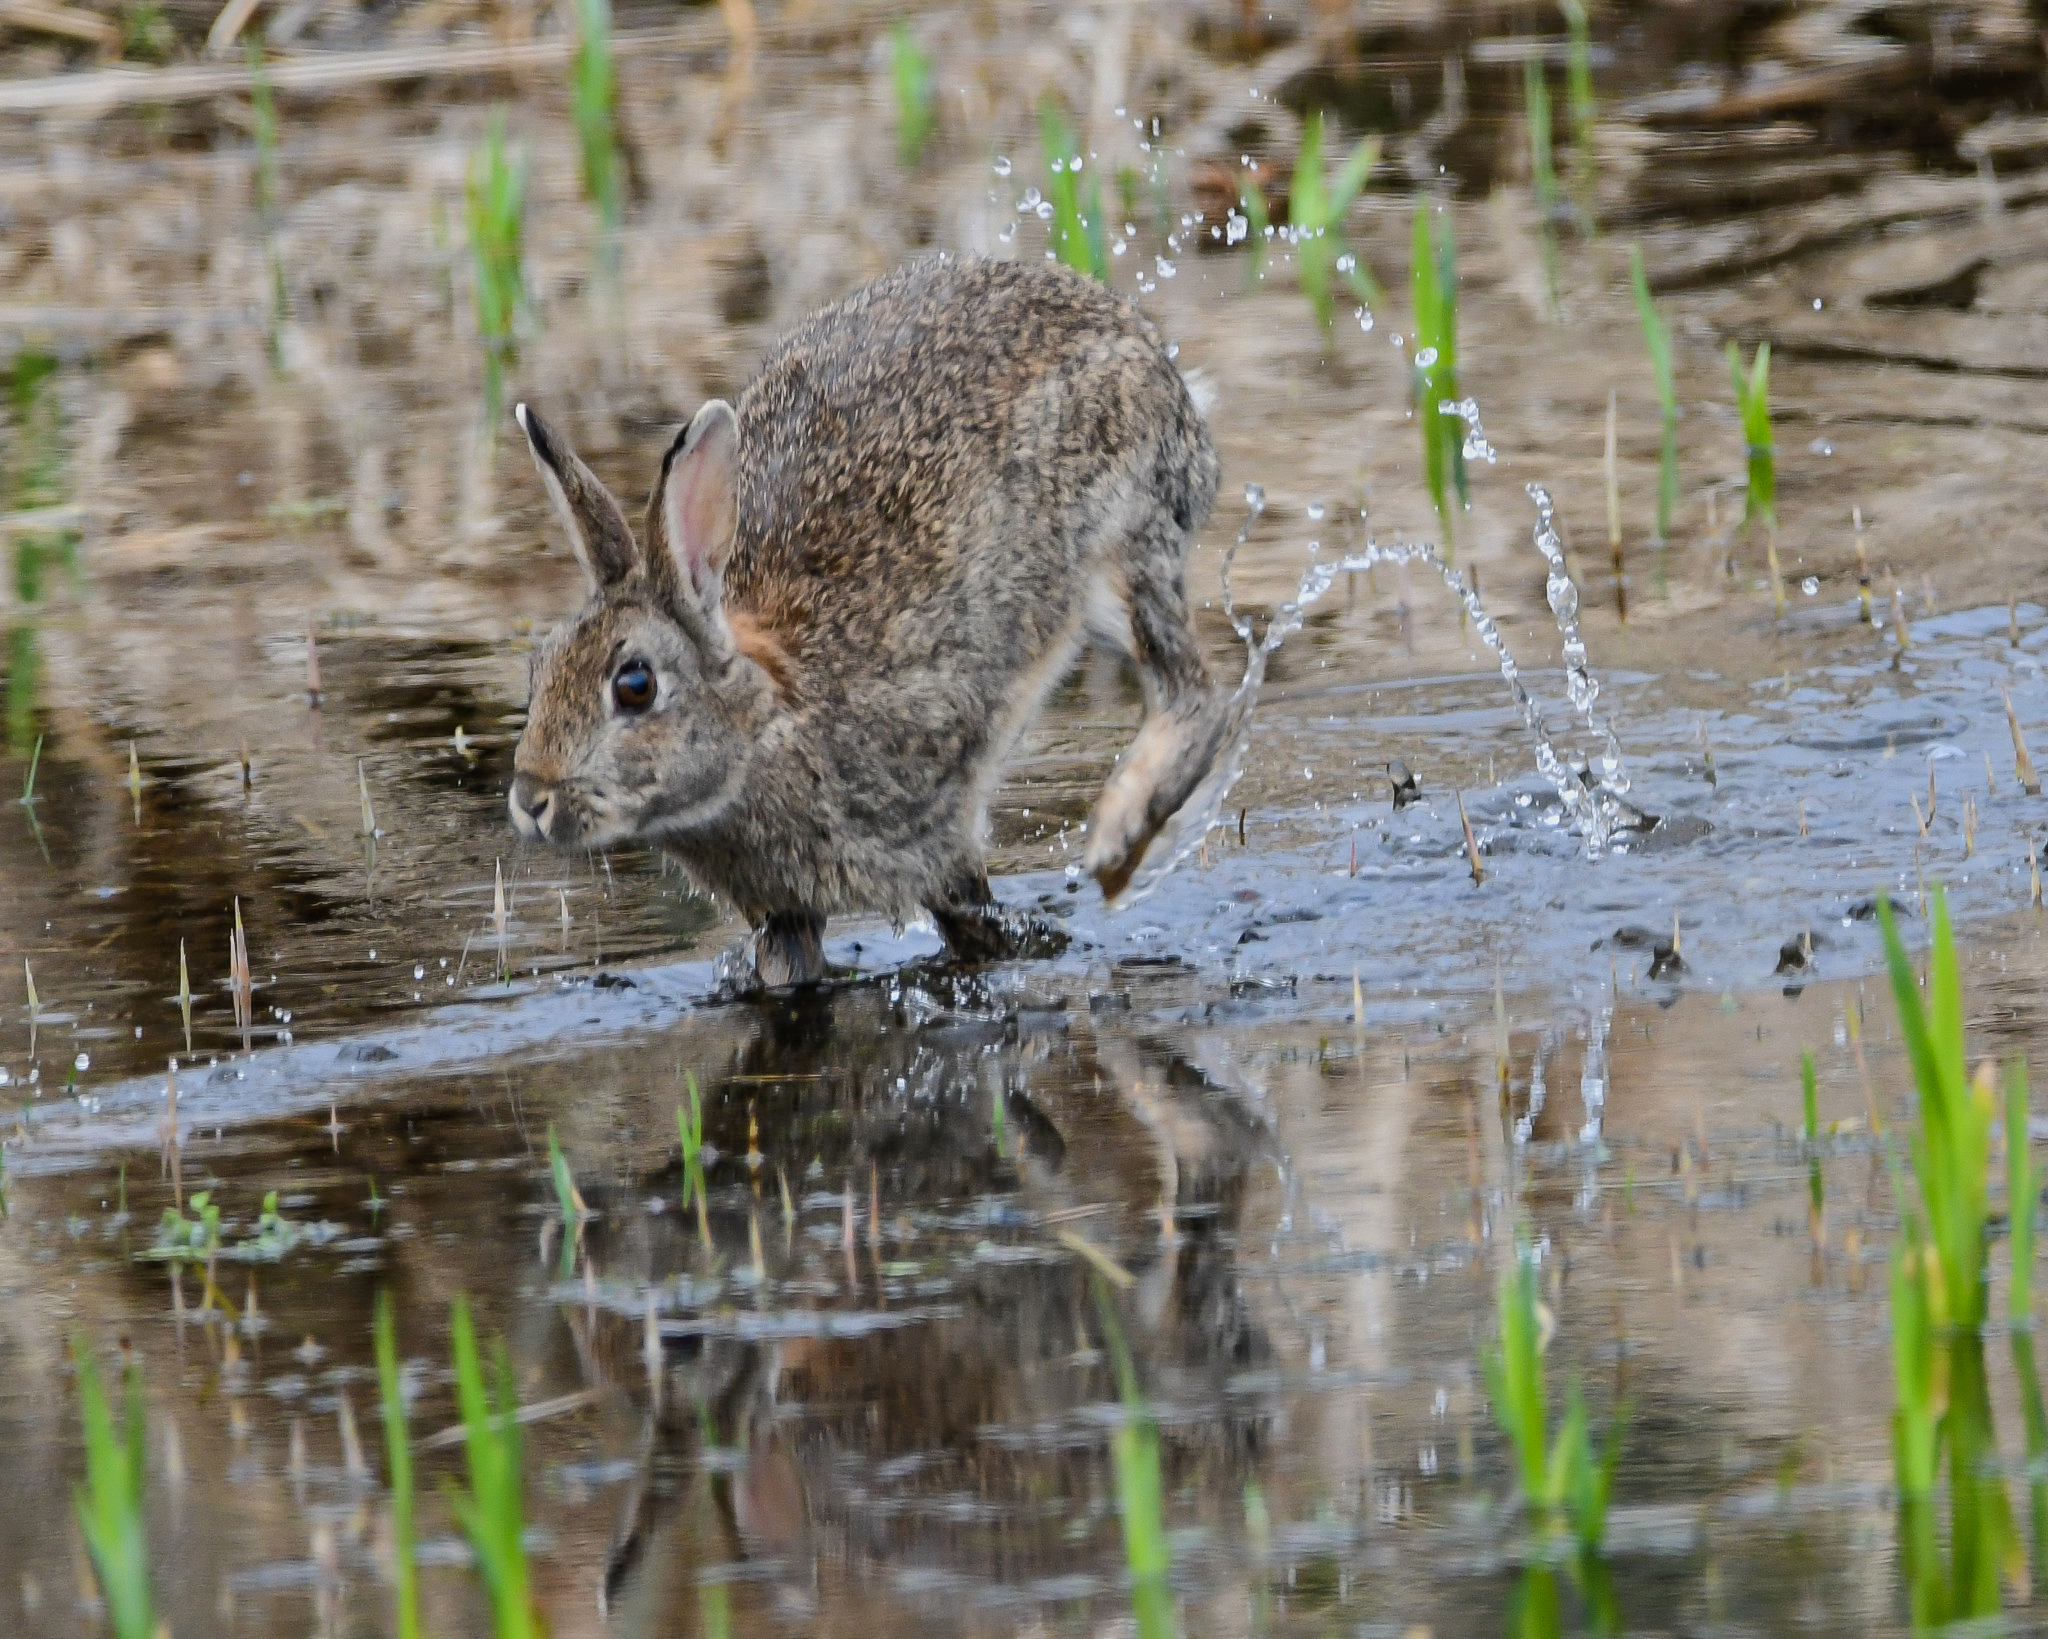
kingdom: Animalia
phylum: Chordata
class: Mammalia
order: Lagomorpha
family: Leporidae
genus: Oryctolagus
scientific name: Oryctolagus cuniculus
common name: European rabbit
